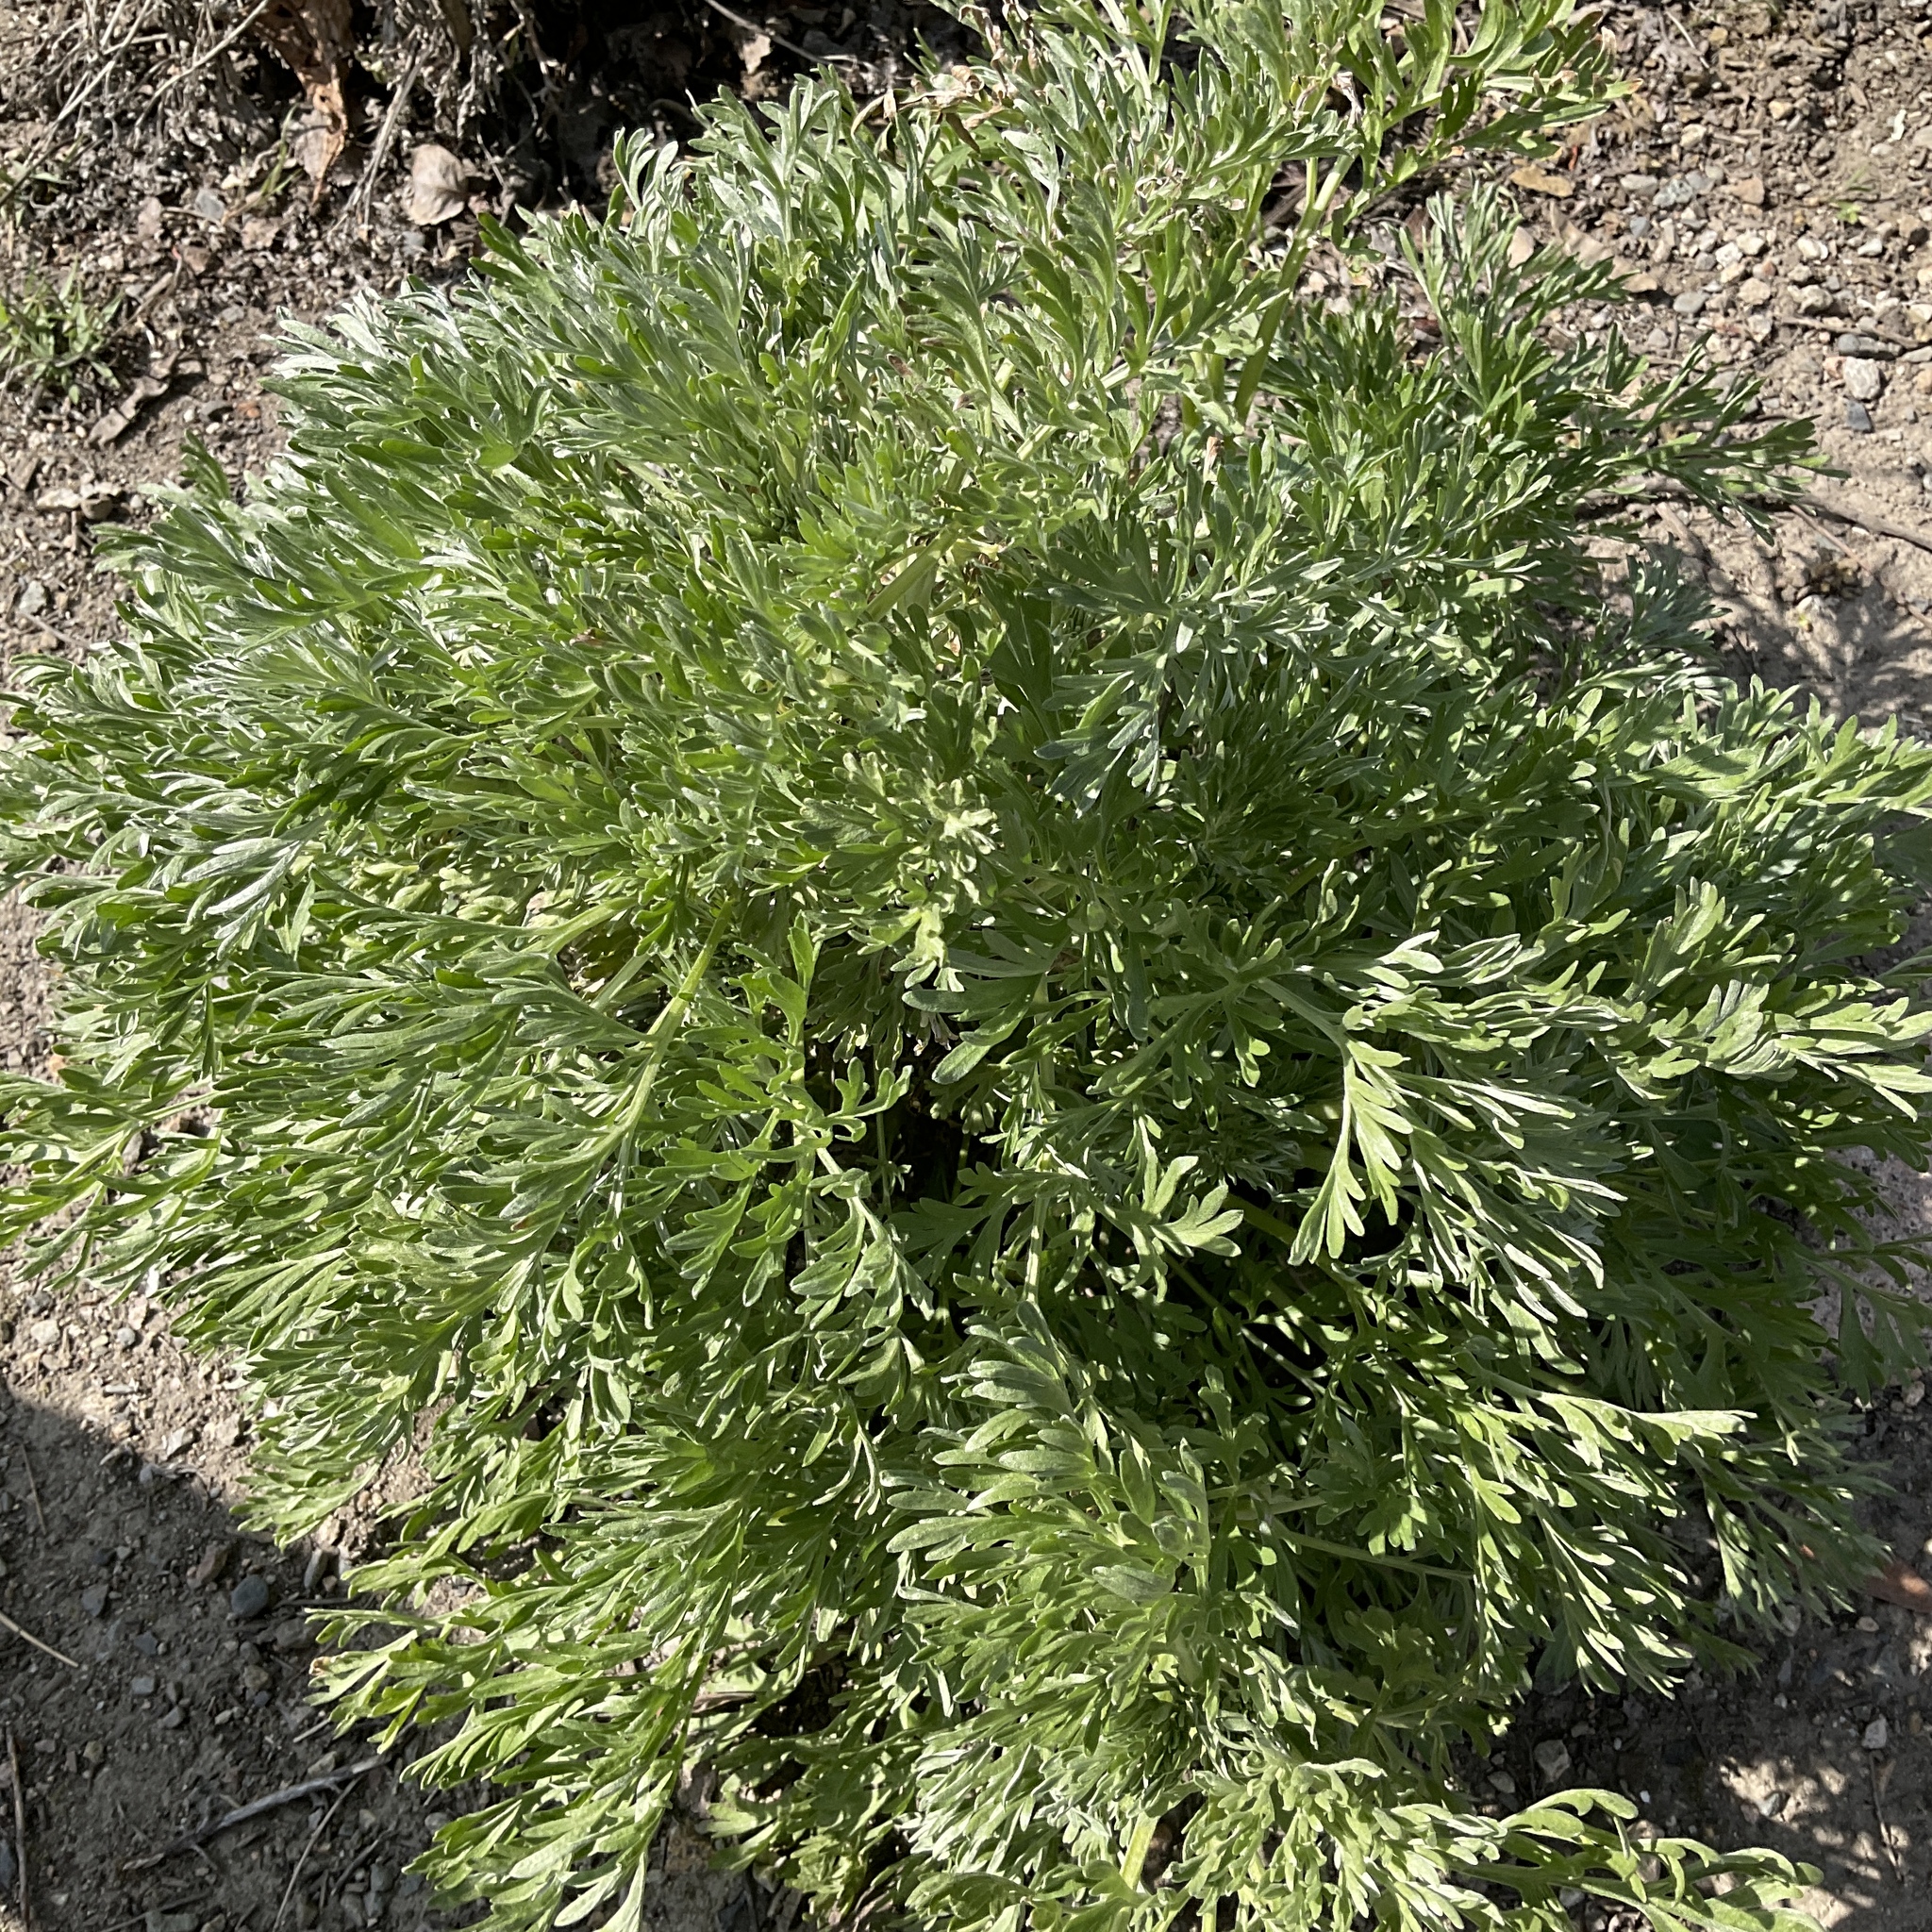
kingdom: Plantae
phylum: Tracheophyta
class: Magnoliopsida
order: Asterales
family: Asteraceae
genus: Artemisia
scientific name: Artemisia absinthium
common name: Wormwood
